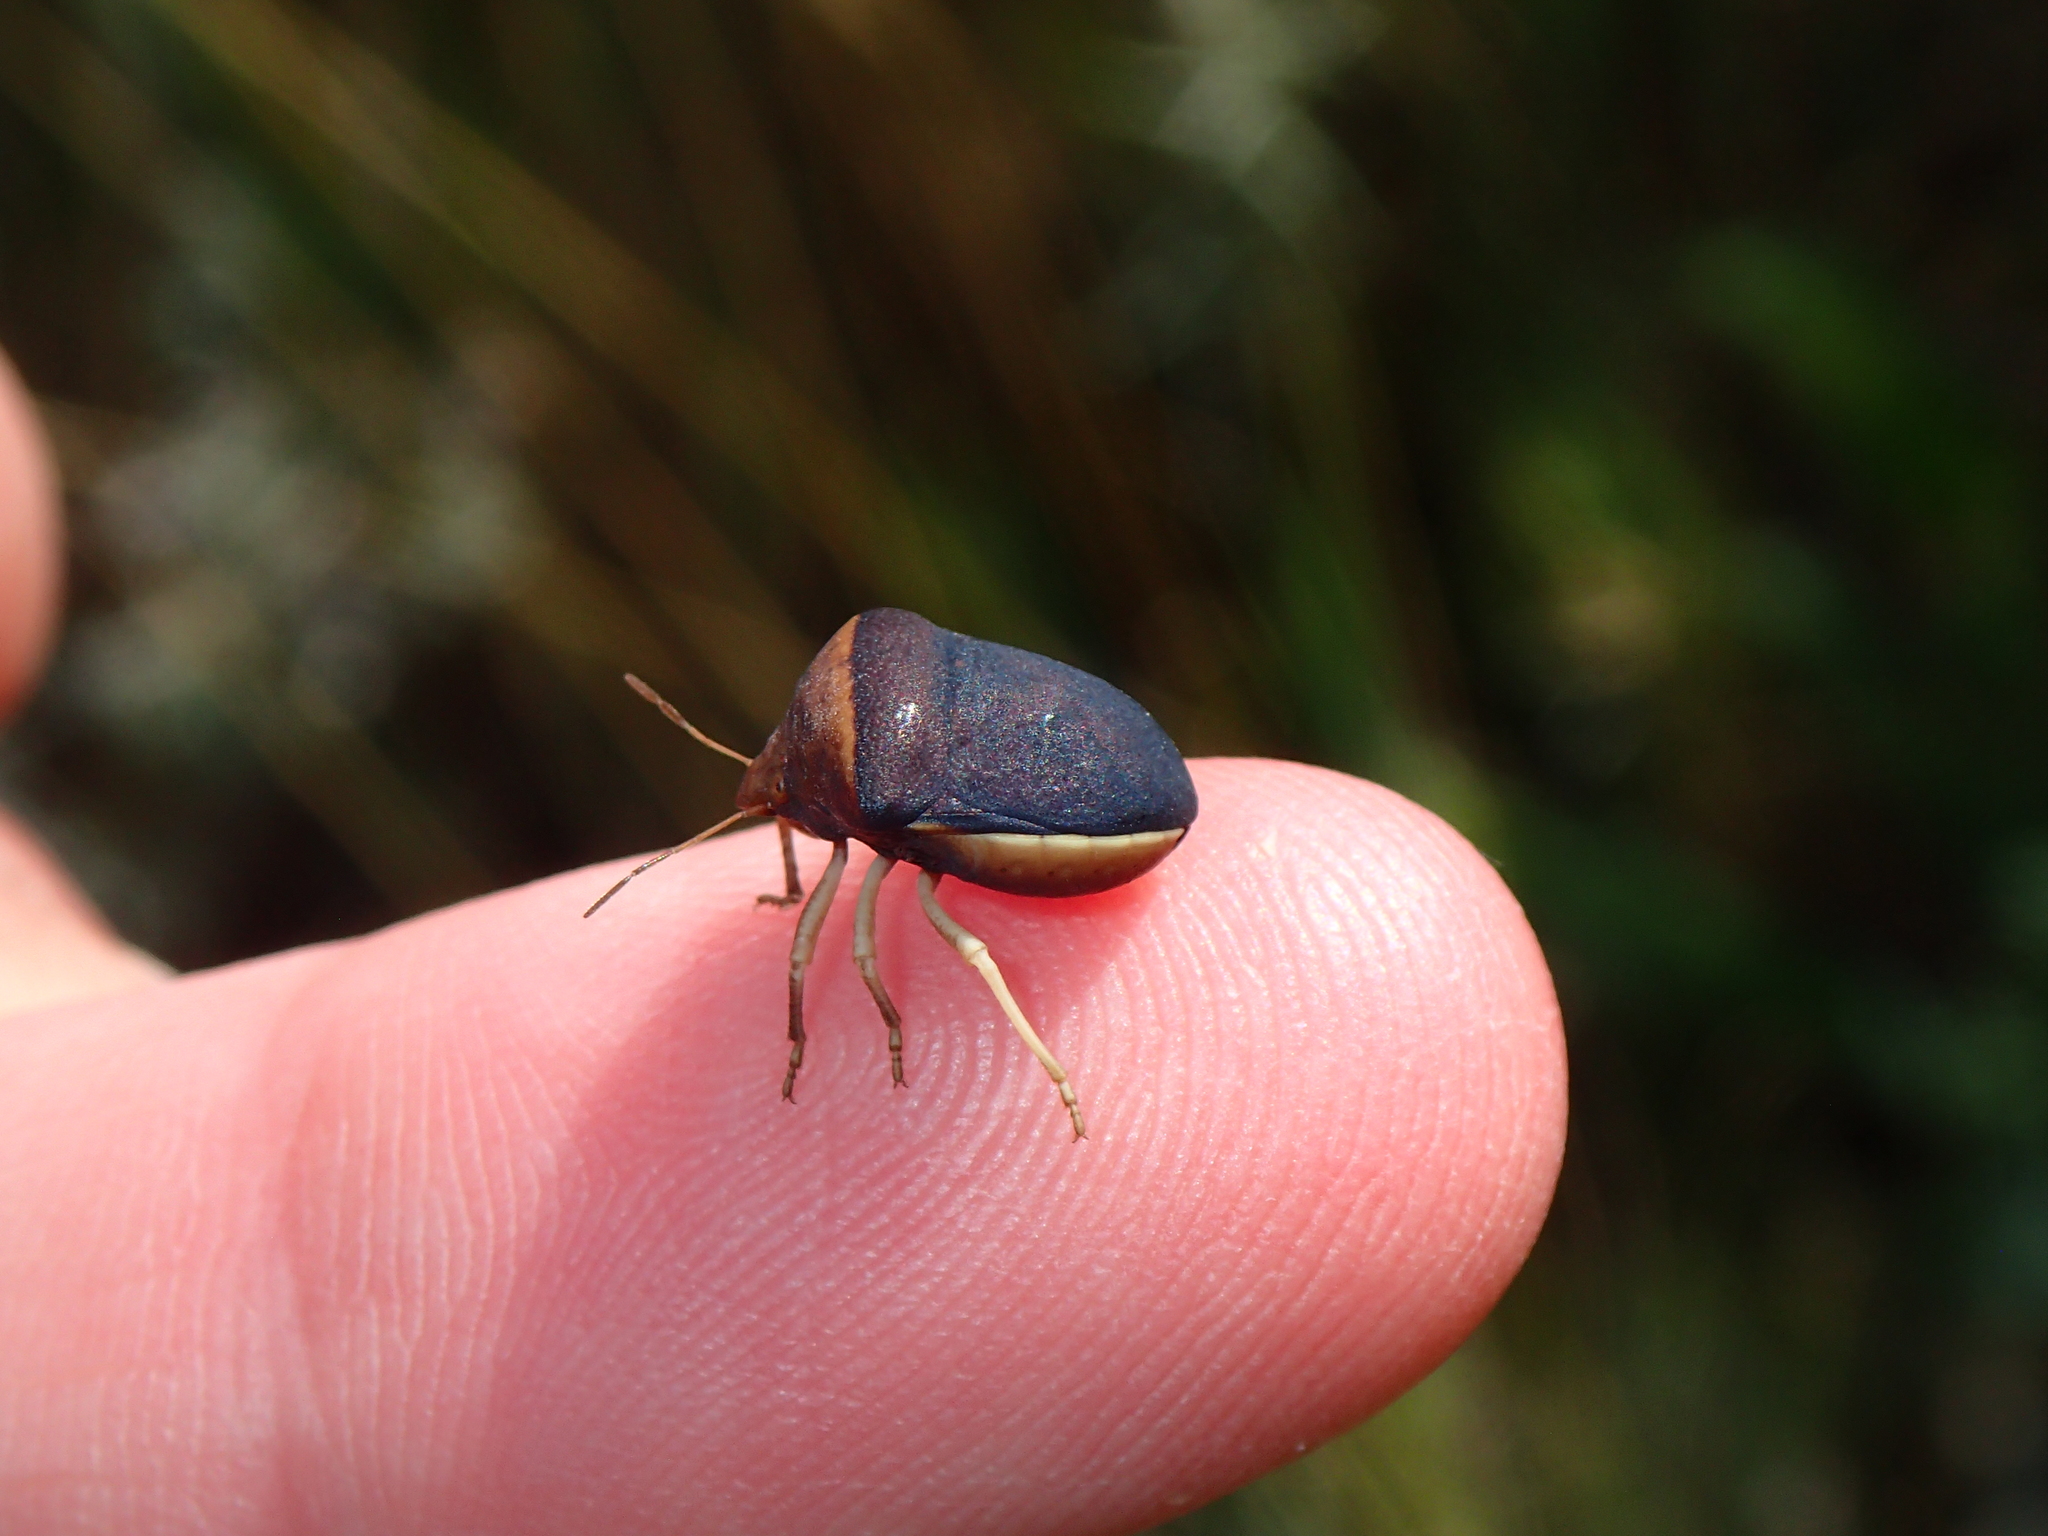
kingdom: Animalia
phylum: Arthropoda
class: Insecta
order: Hemiptera
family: Pentatomidae
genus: Ventocoris
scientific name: Ventocoris rusticus
